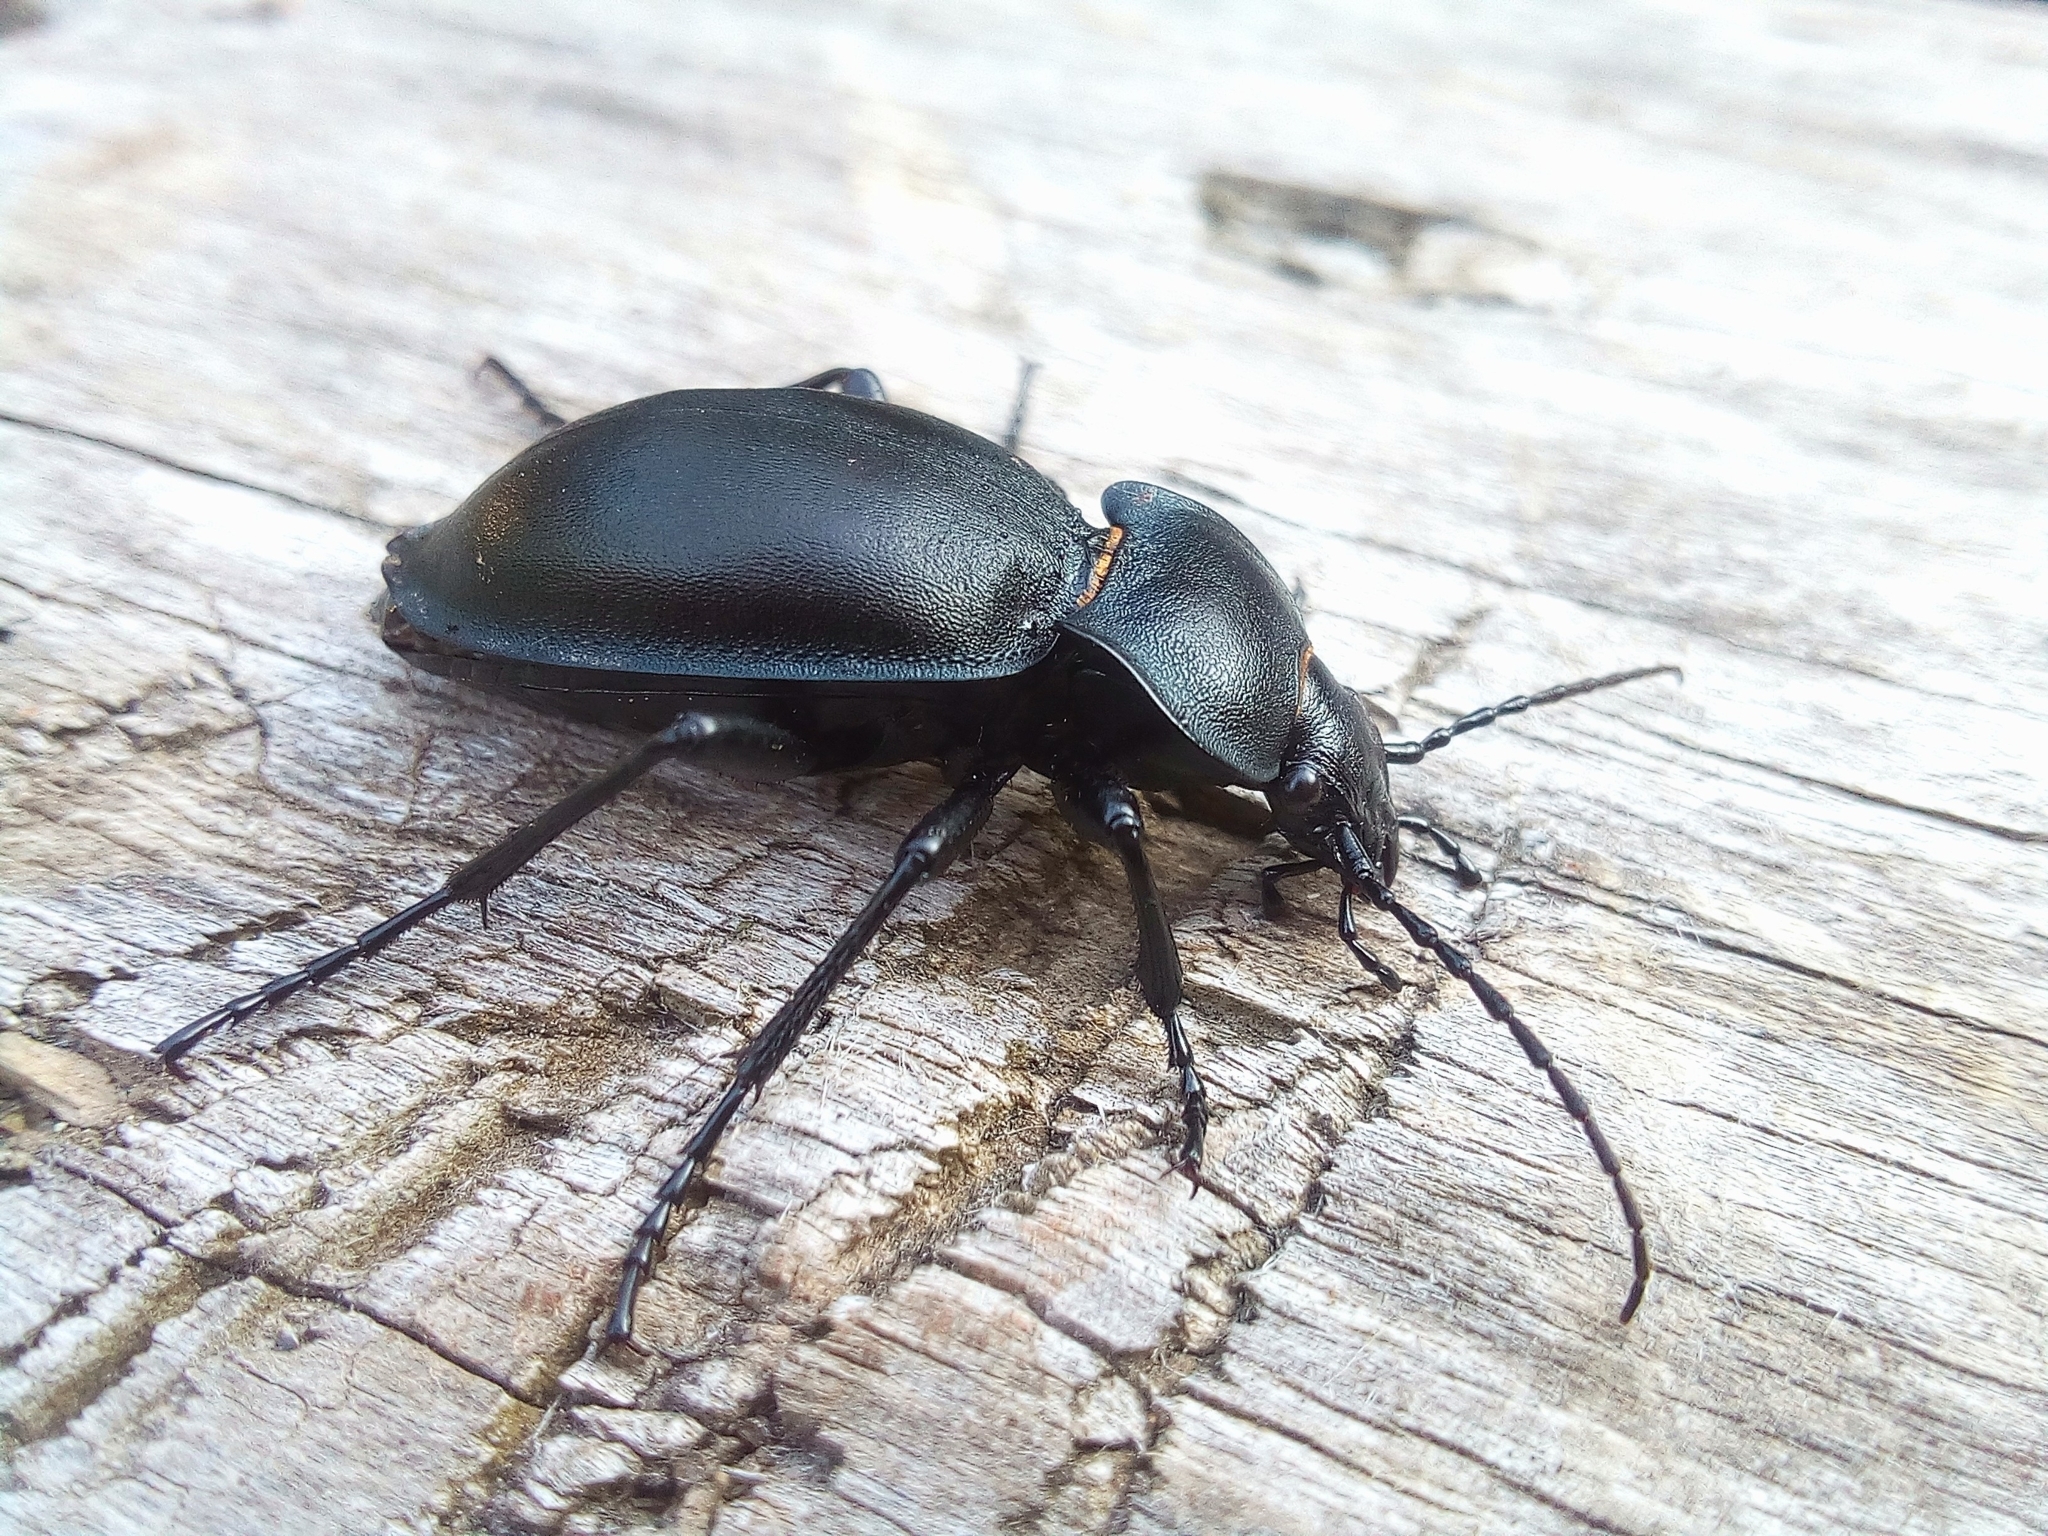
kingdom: Animalia
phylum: Arthropoda
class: Insecta
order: Coleoptera
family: Carabidae
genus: Carabus
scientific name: Carabus glabratus
